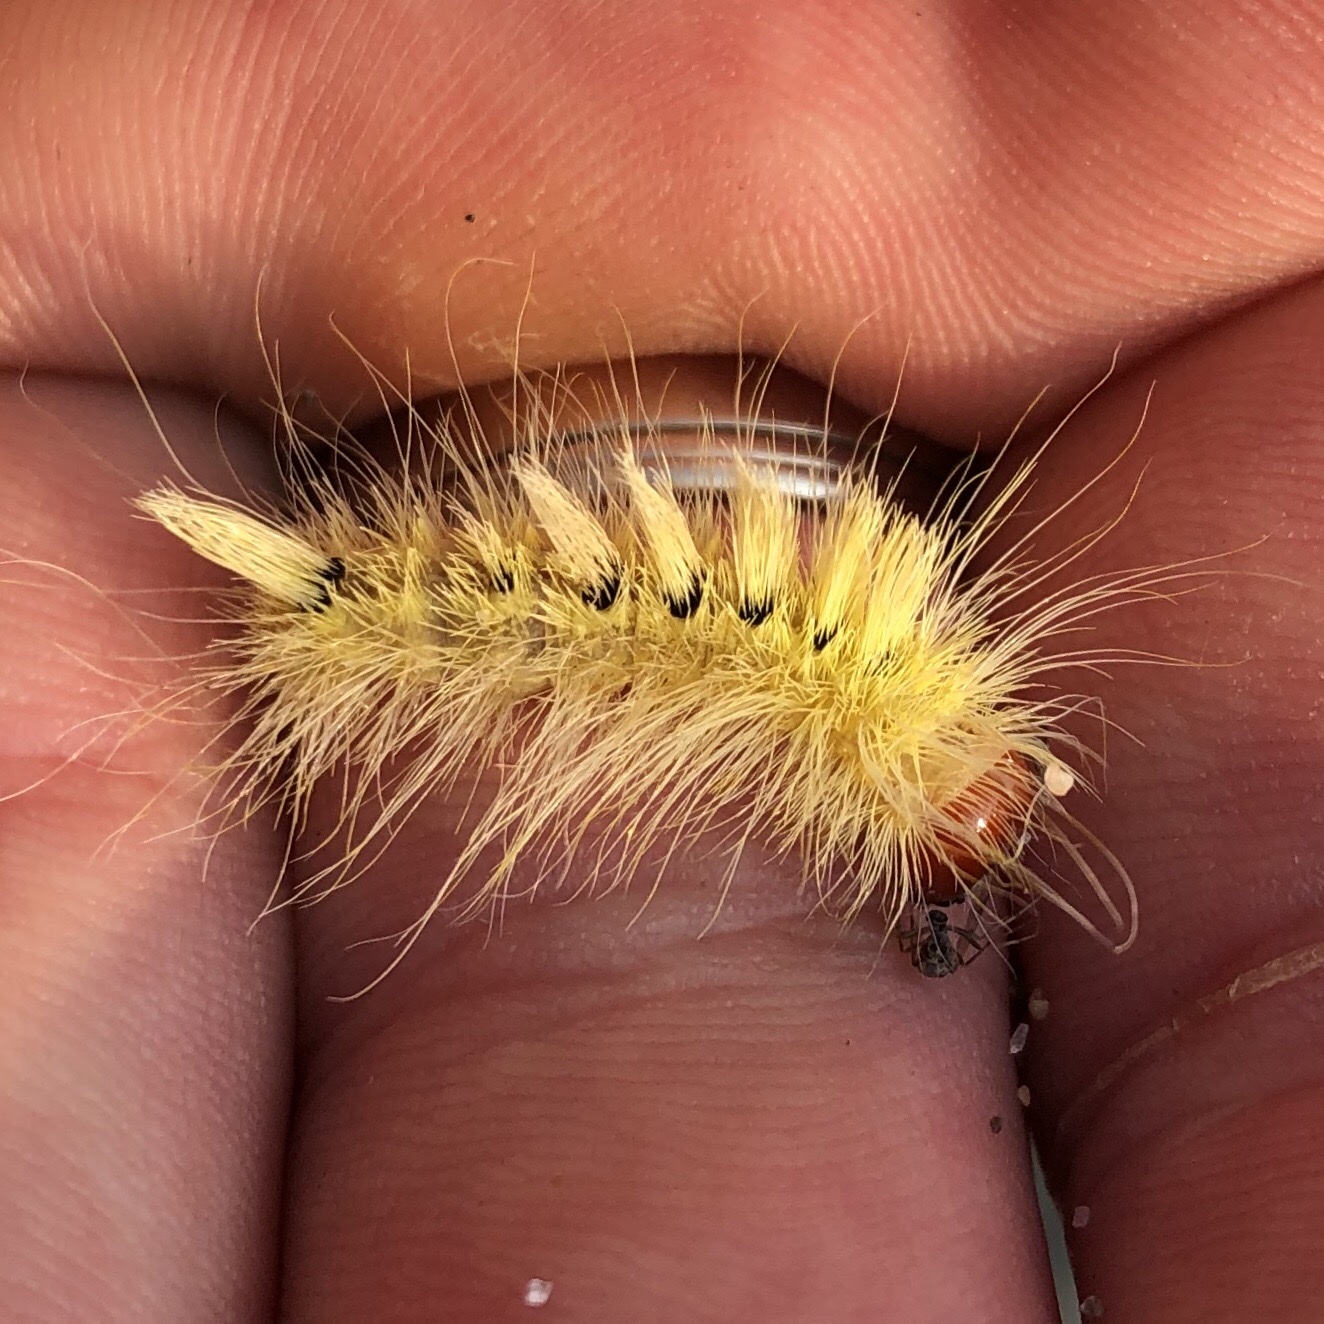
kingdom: Animalia
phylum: Arthropoda
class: Insecta
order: Lepidoptera
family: Noctuidae
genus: Acronicta
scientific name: Acronicta rubricoma
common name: Hackberry dagger
